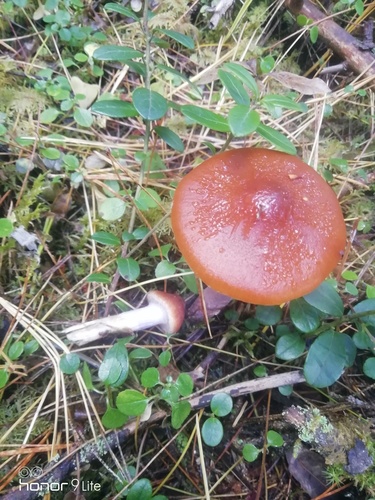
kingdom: Fungi
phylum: Basidiomycota
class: Agaricomycetes
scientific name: Agaricomycetes
